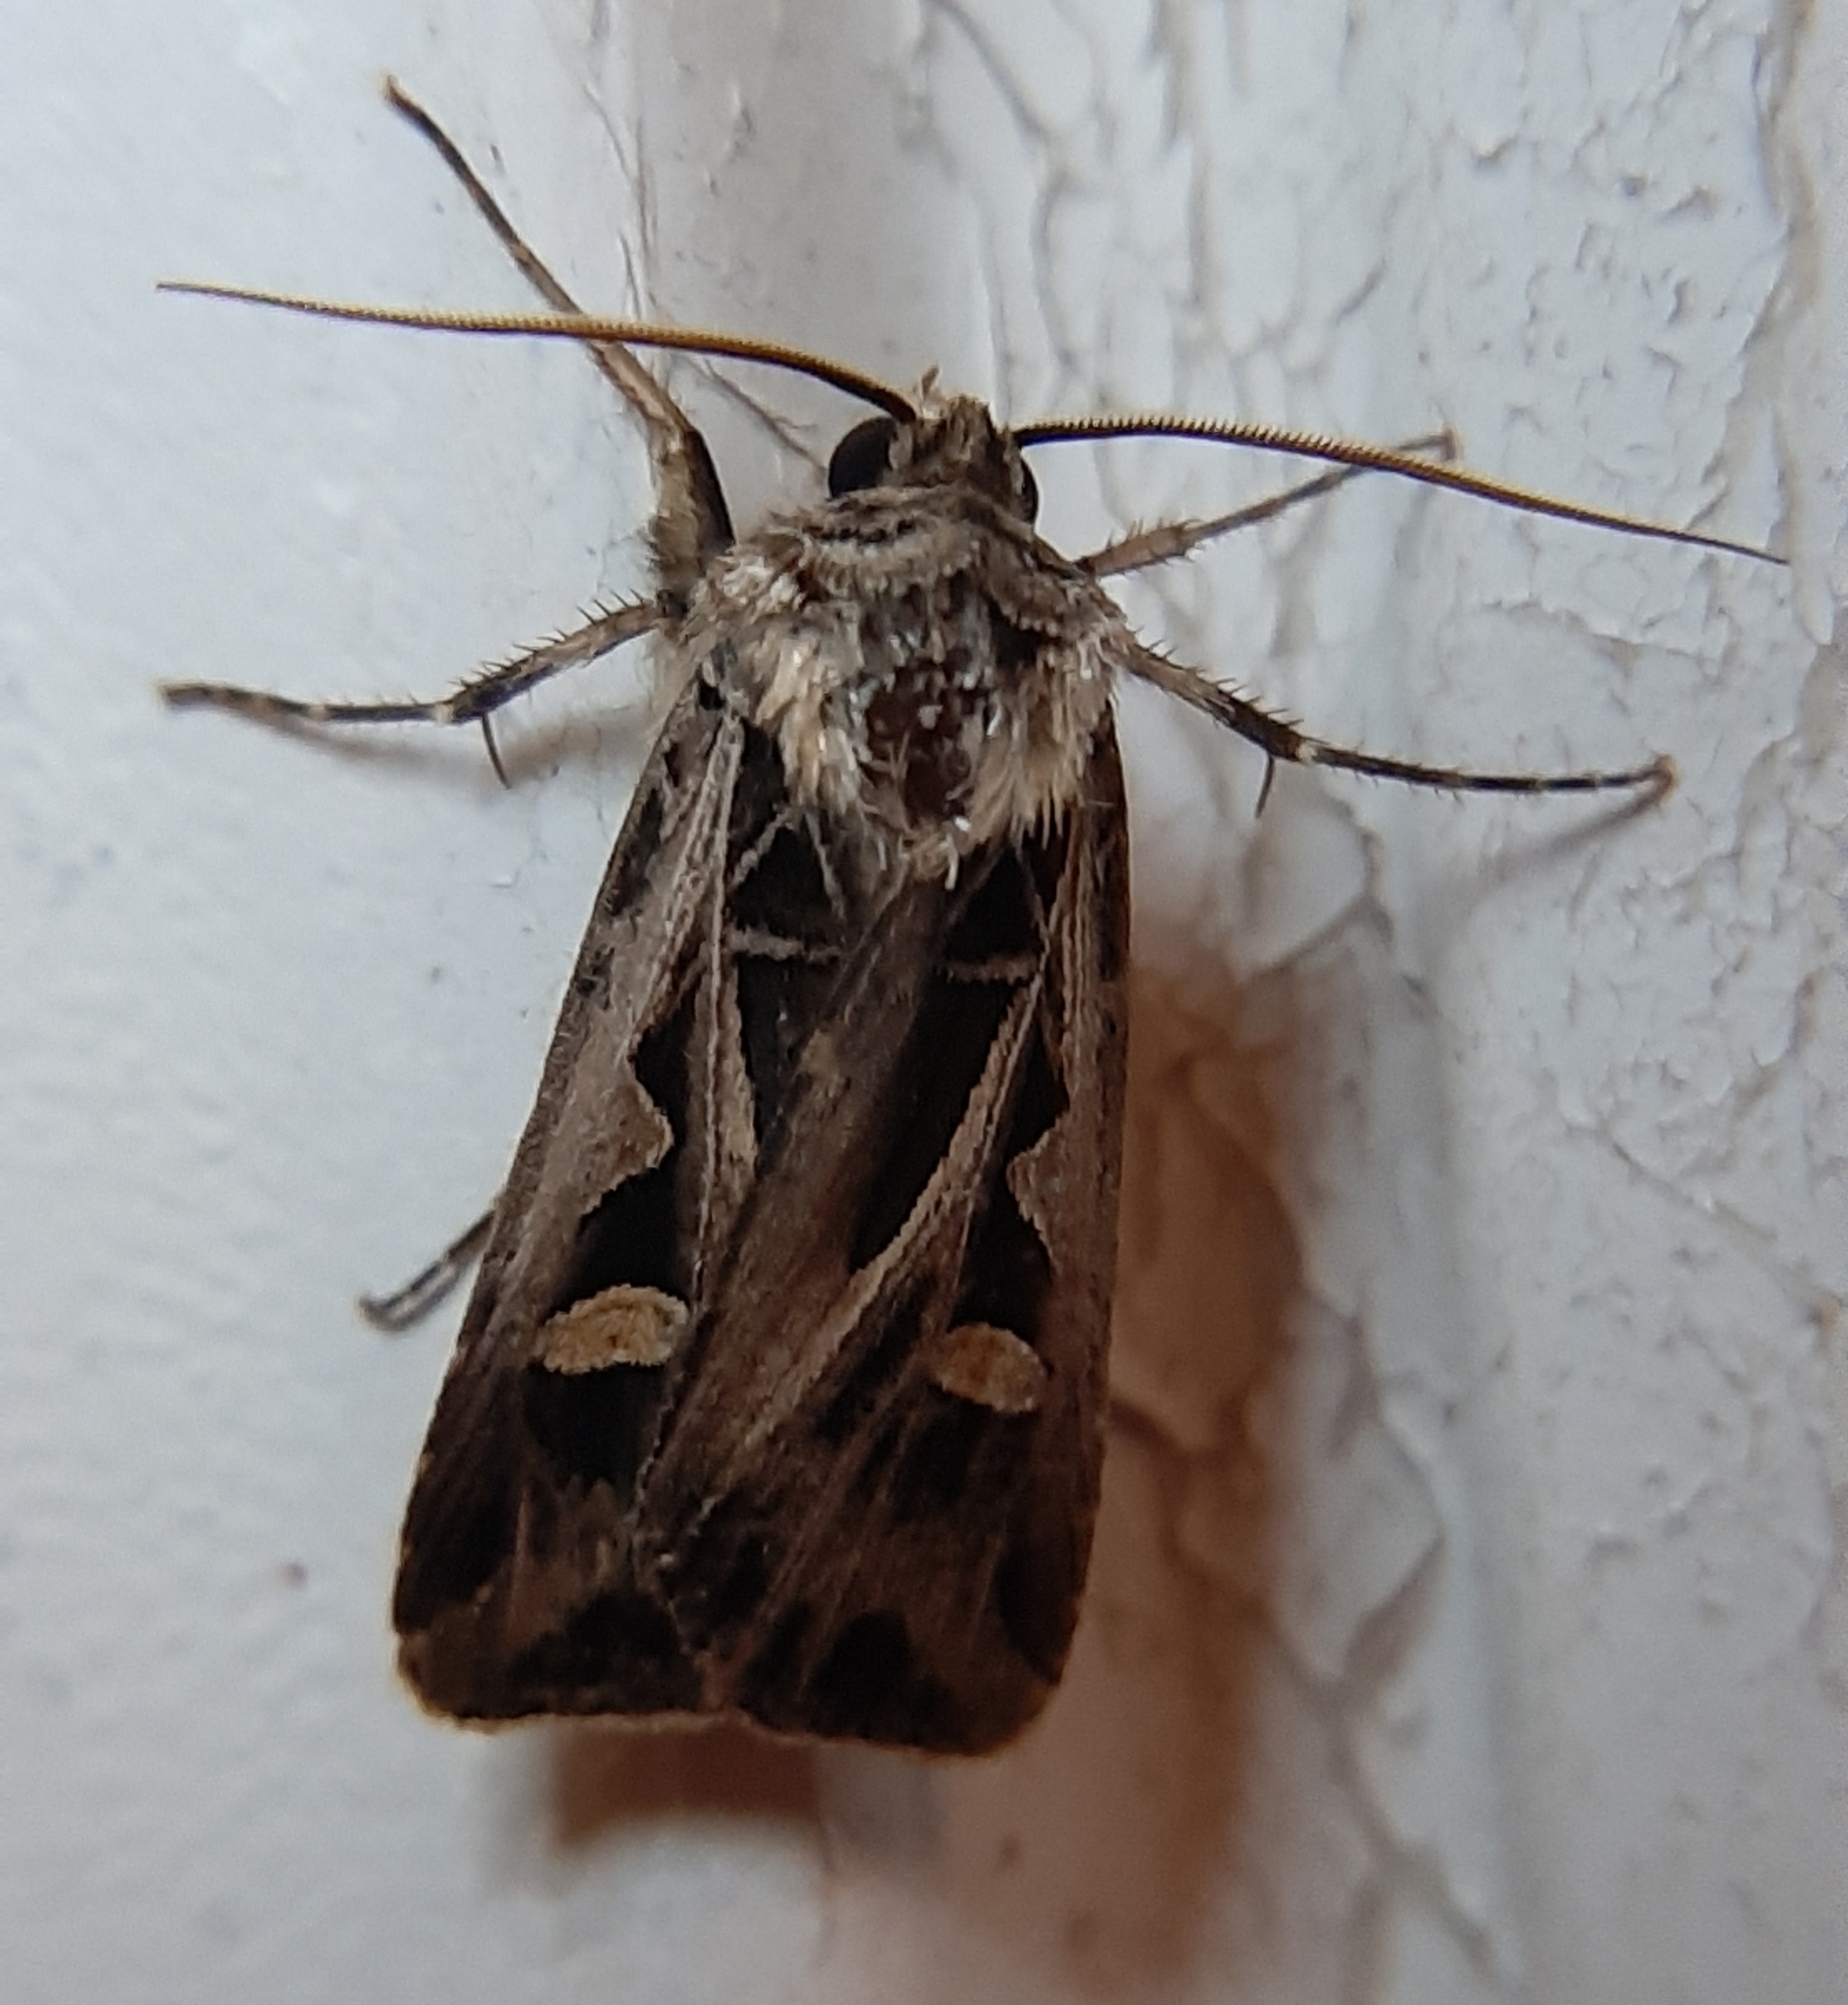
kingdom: Animalia
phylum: Arthropoda
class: Insecta
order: Lepidoptera
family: Noctuidae
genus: Feltia
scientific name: Feltia jaculifera
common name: Dingy cutworm moth
